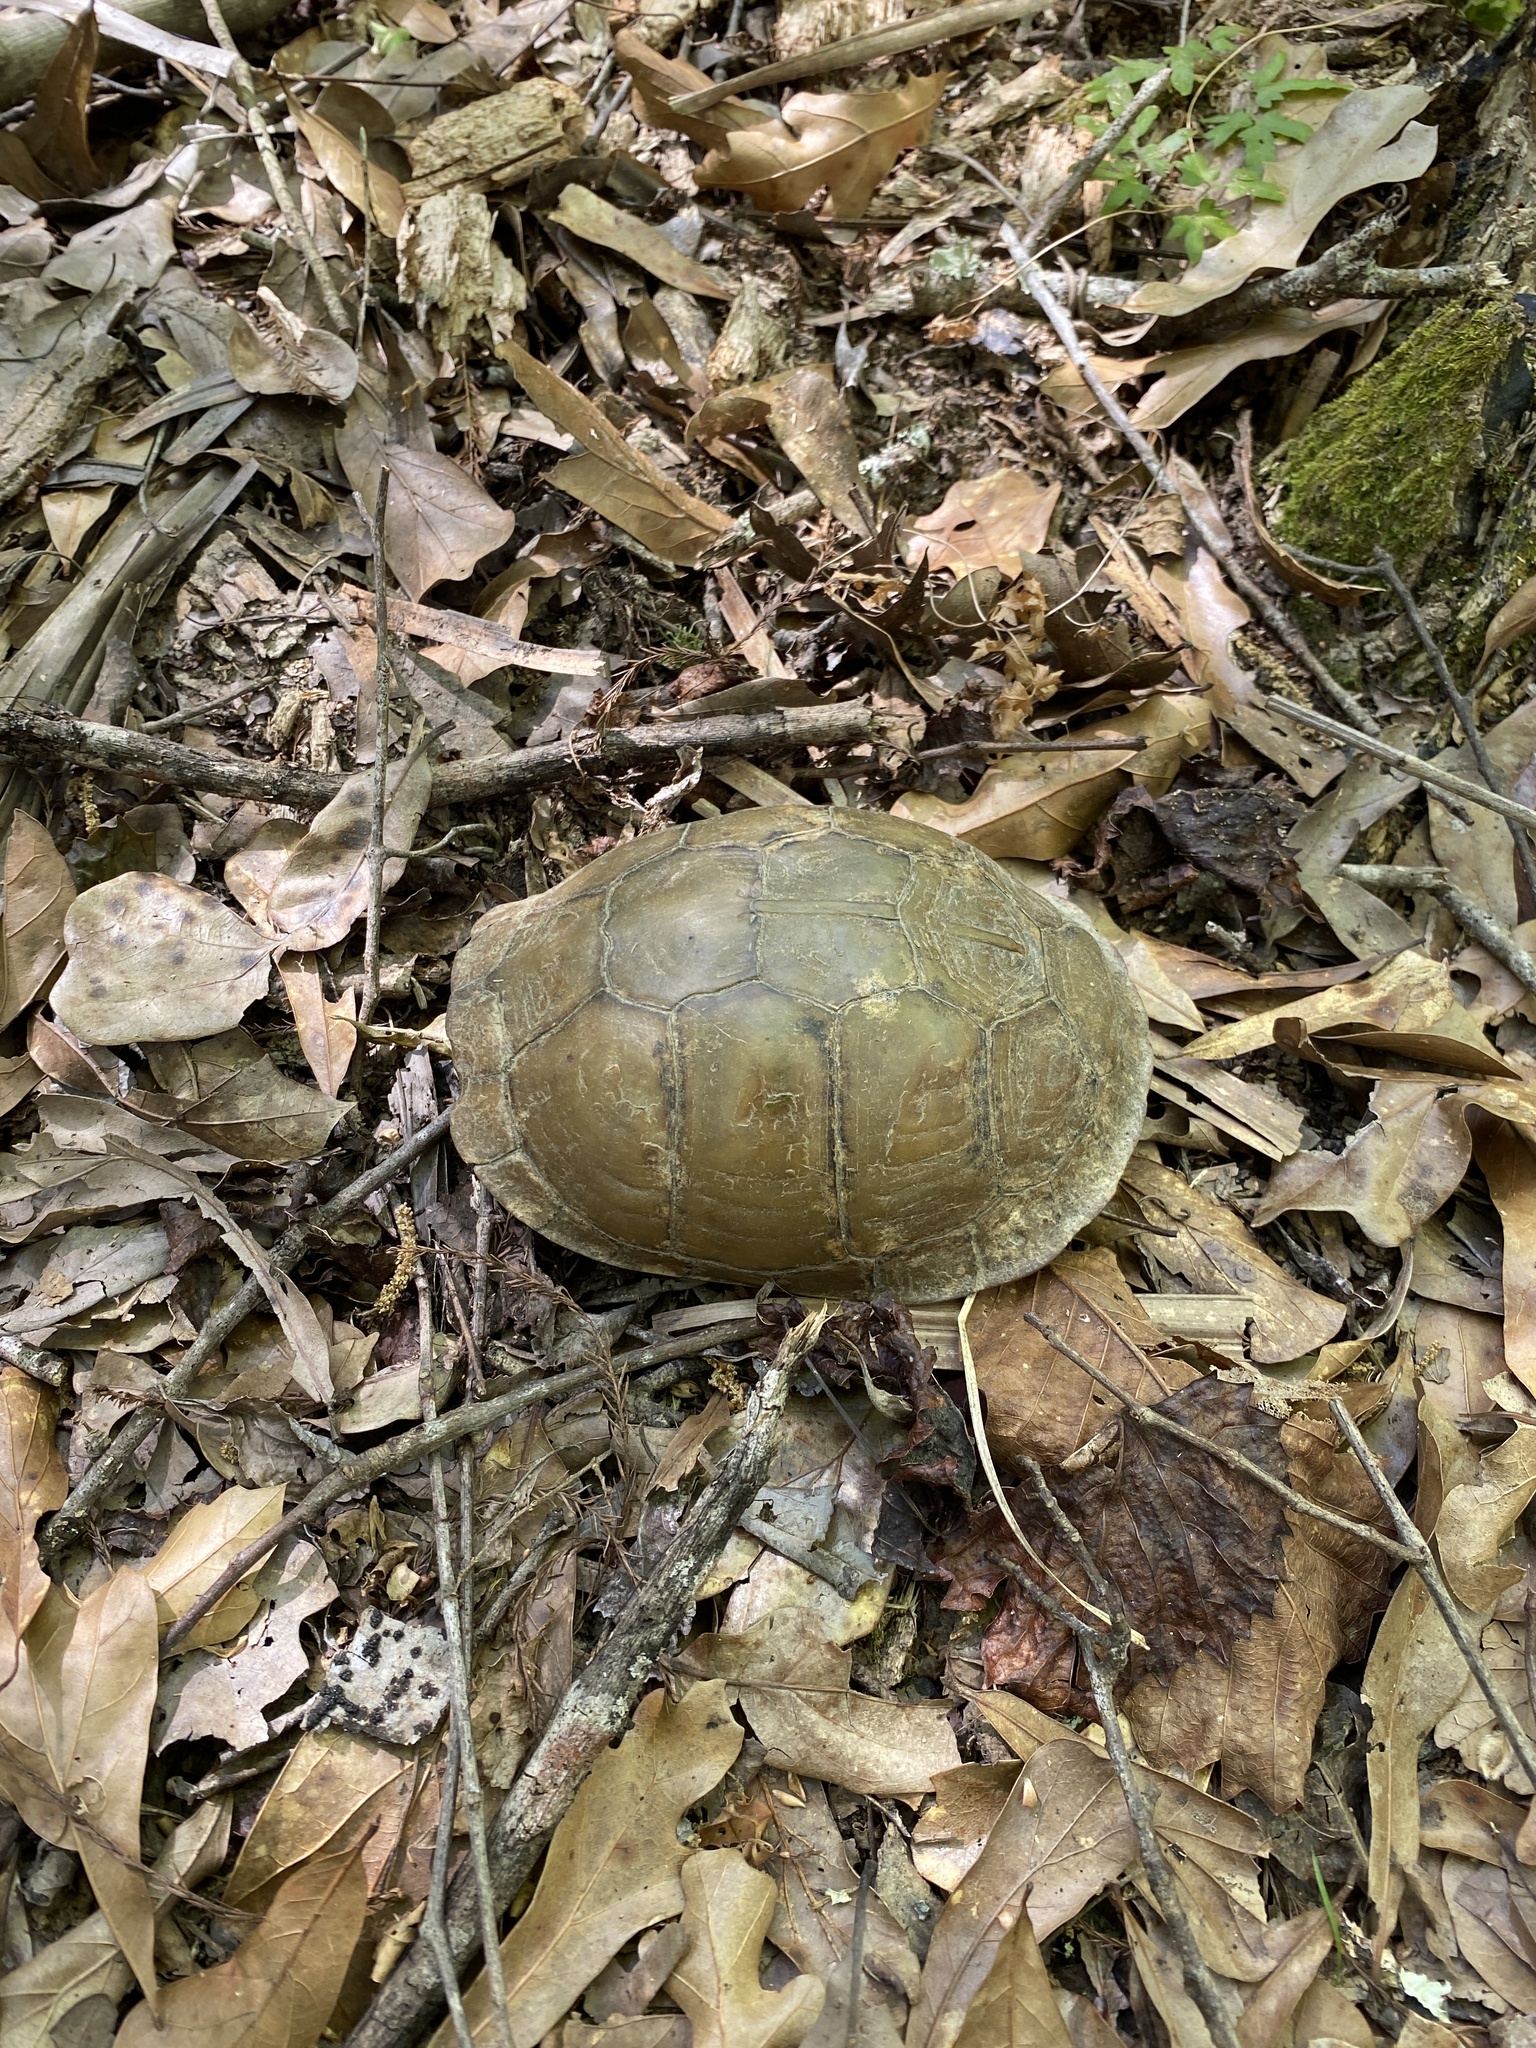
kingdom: Animalia
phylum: Chordata
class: Testudines
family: Emydidae
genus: Terrapene
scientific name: Terrapene carolina
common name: Common box turtle
